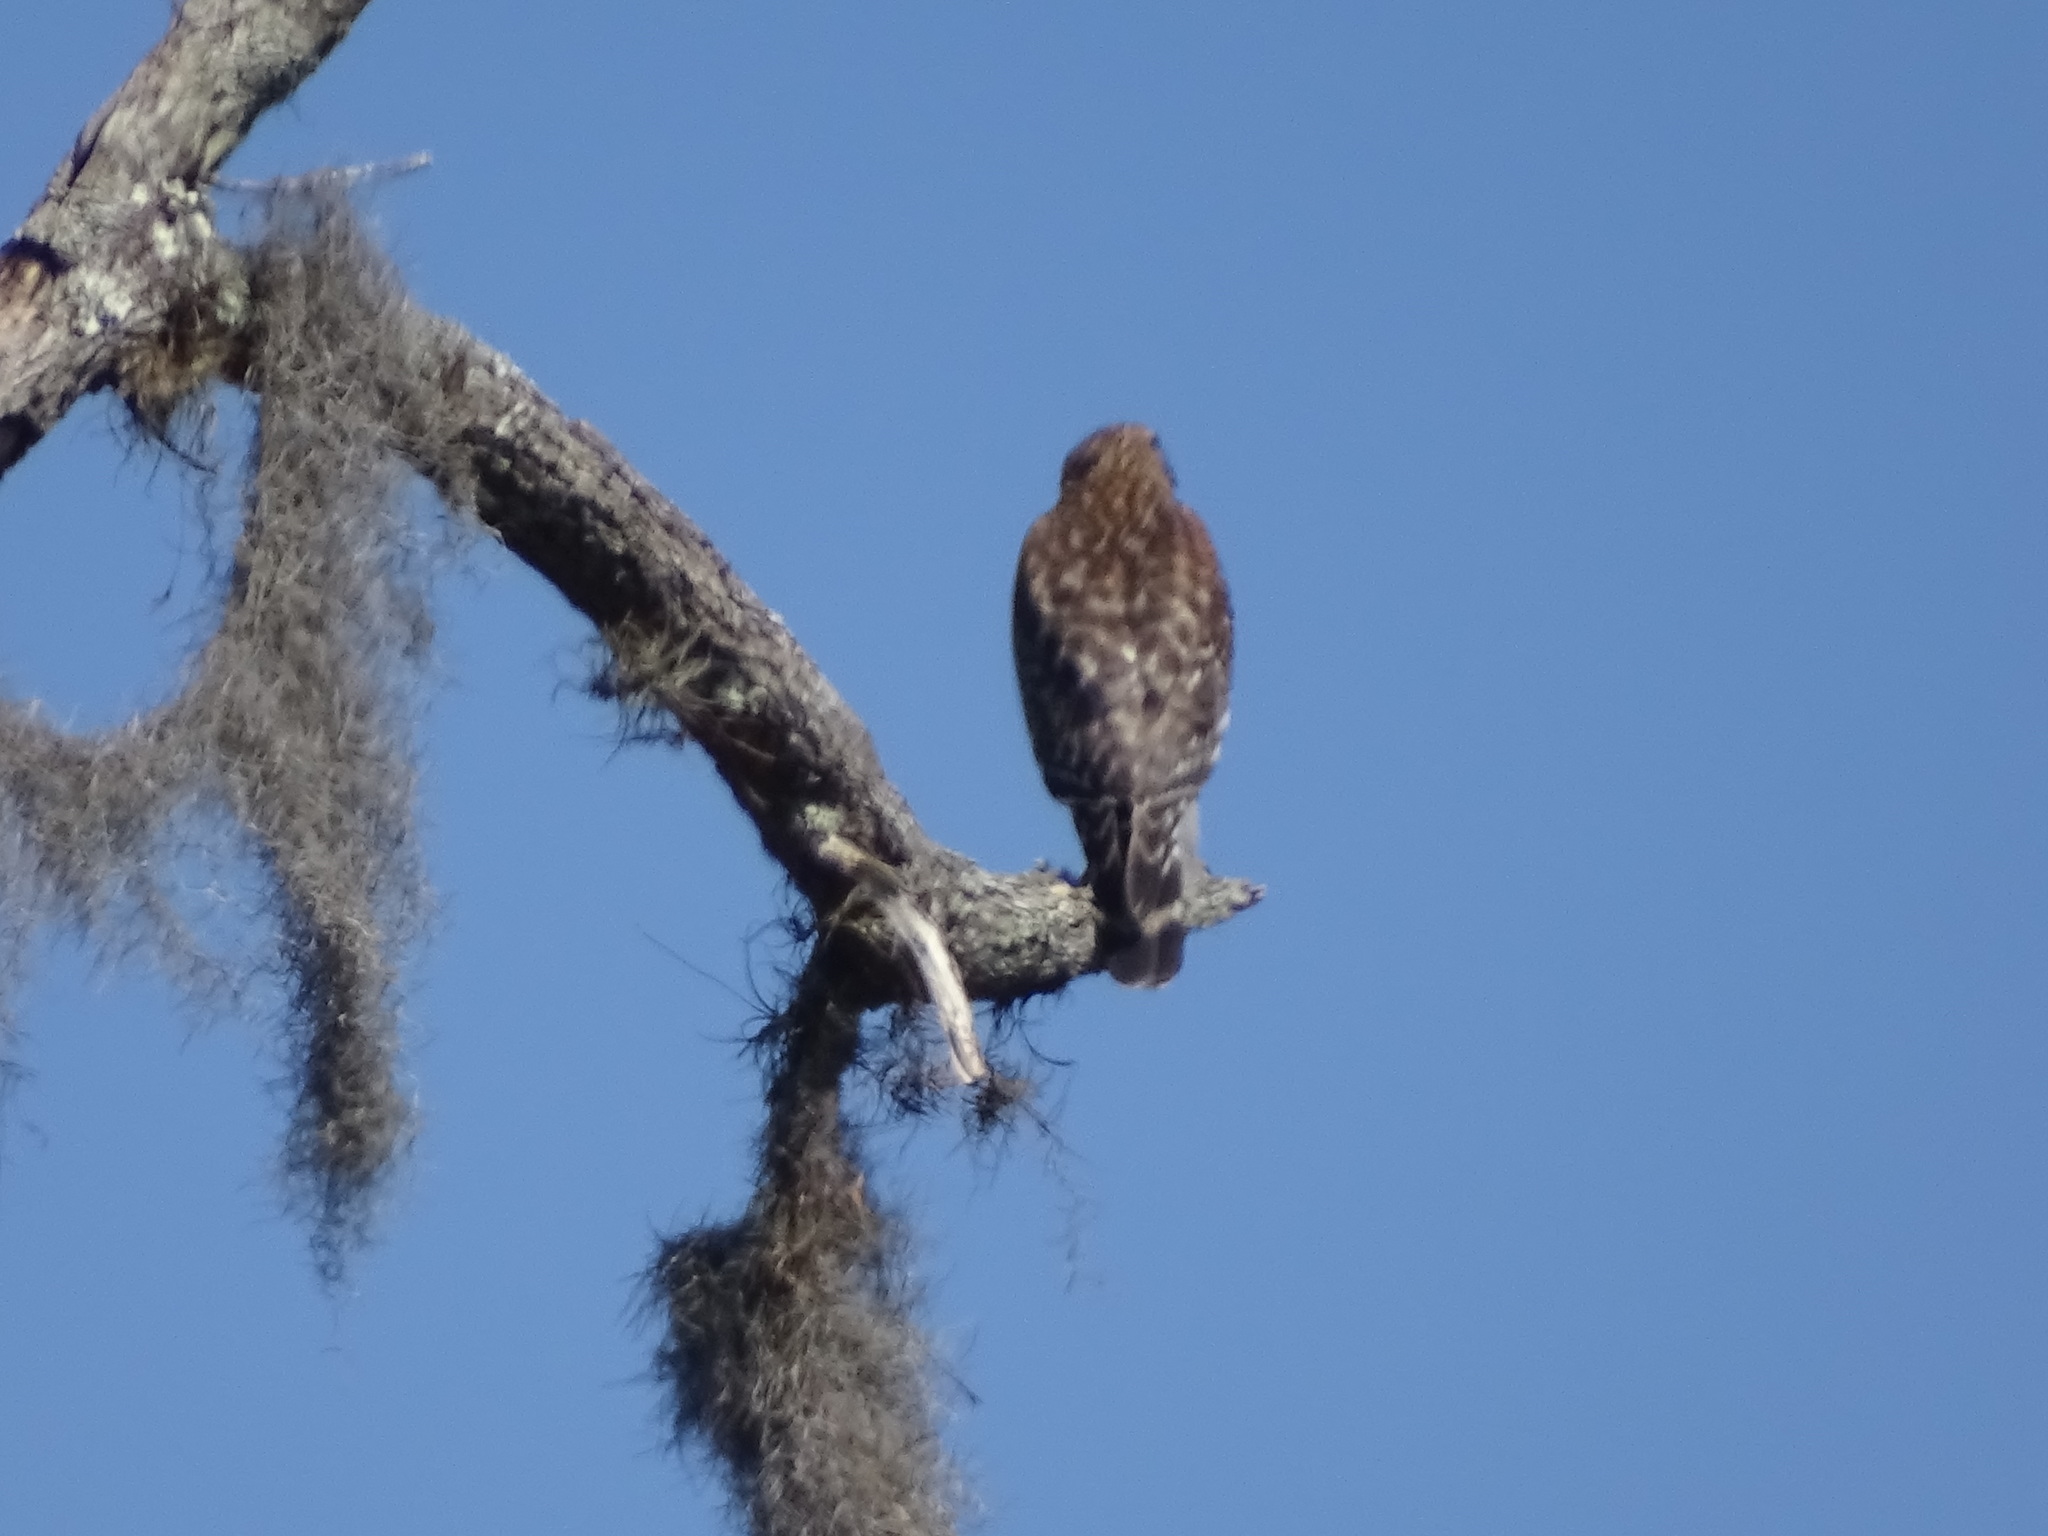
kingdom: Animalia
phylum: Chordata
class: Aves
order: Accipitriformes
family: Accipitridae
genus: Buteo
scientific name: Buteo lineatus
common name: Red-shouldered hawk
